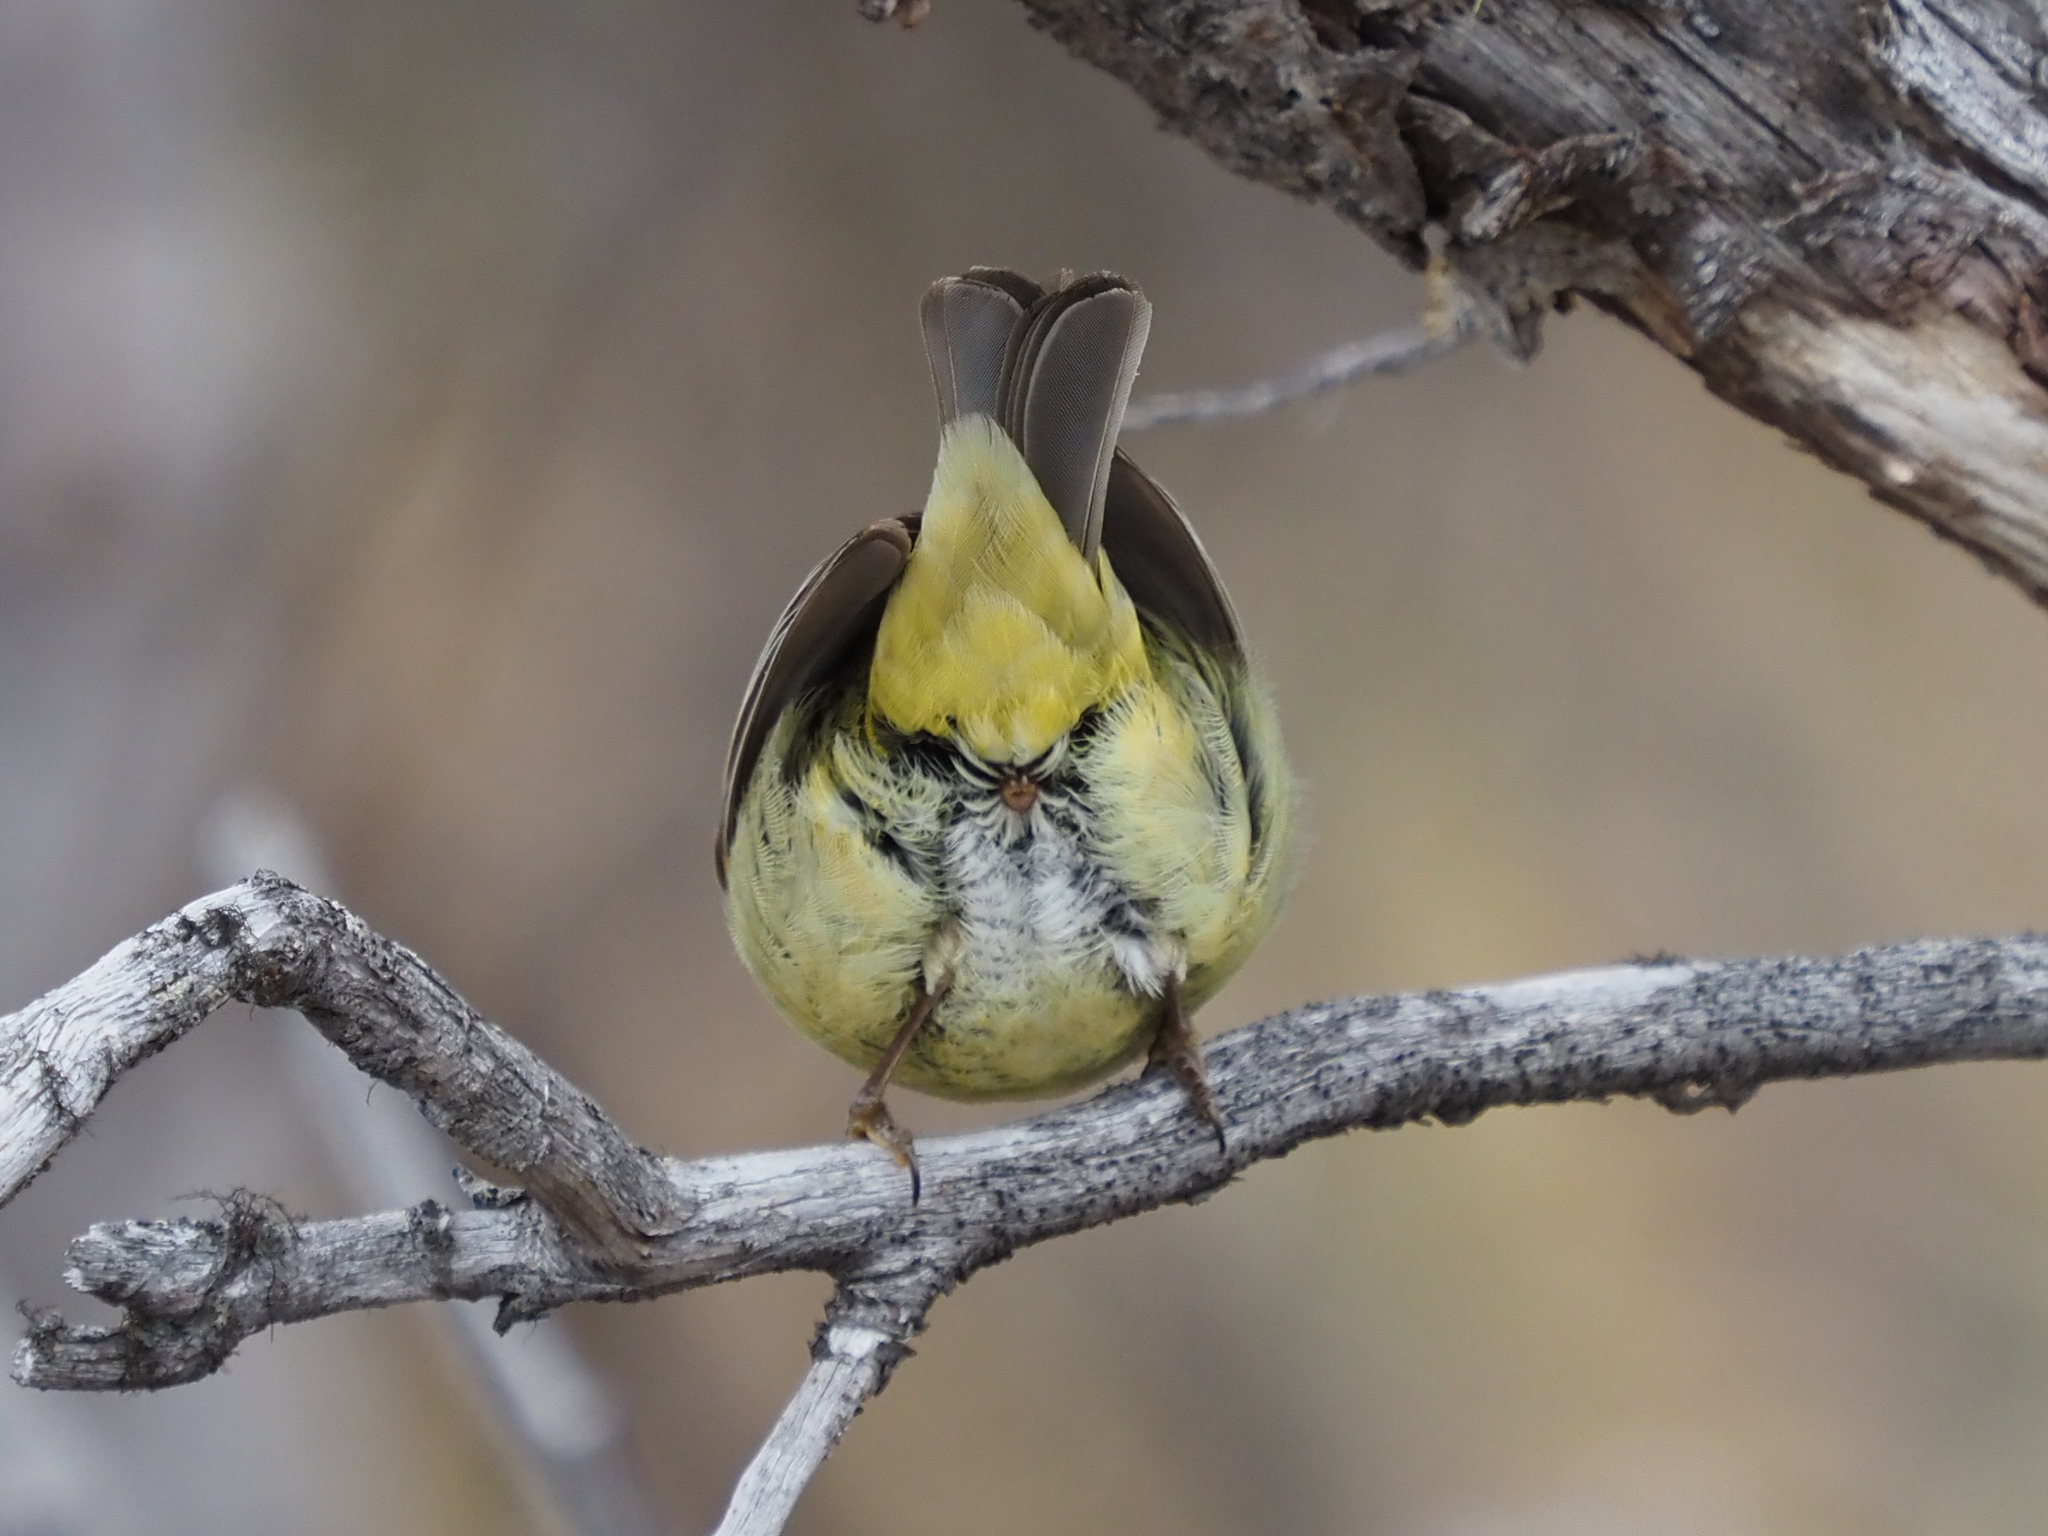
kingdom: Animalia
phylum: Chordata
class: Aves
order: Passeriformes
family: Parulidae
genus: Leiothlypis
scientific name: Leiothlypis celata
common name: Orange-crowned warbler
